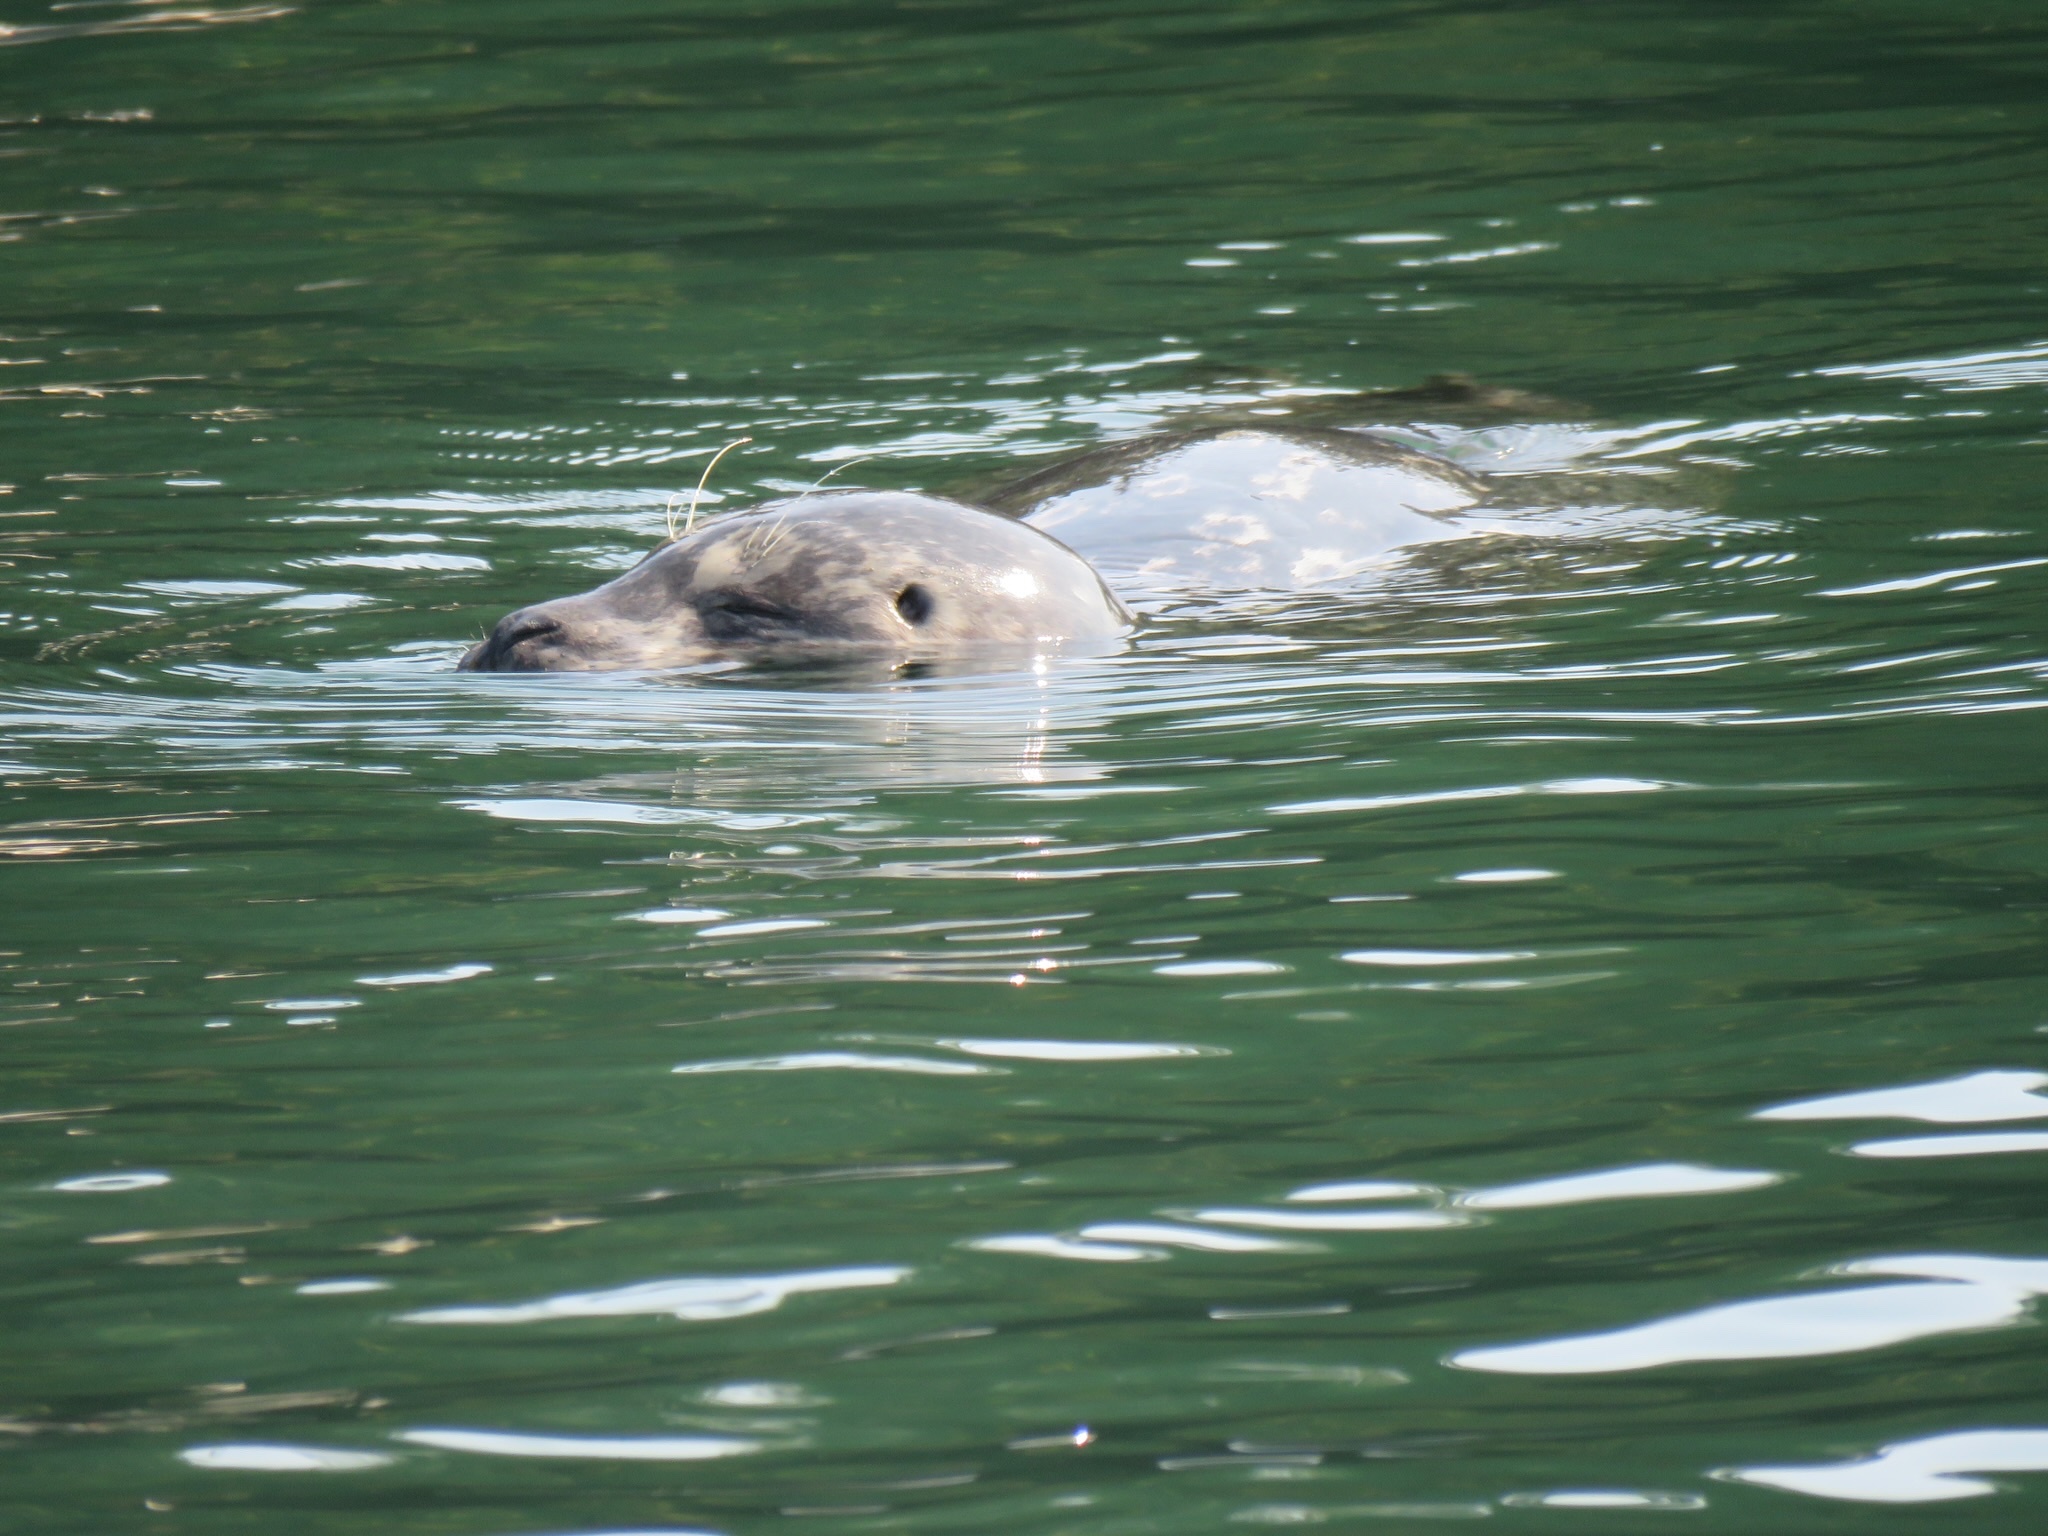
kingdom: Animalia
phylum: Chordata
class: Mammalia
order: Carnivora
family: Phocidae
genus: Phoca
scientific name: Phoca vitulina
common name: Harbor seal
